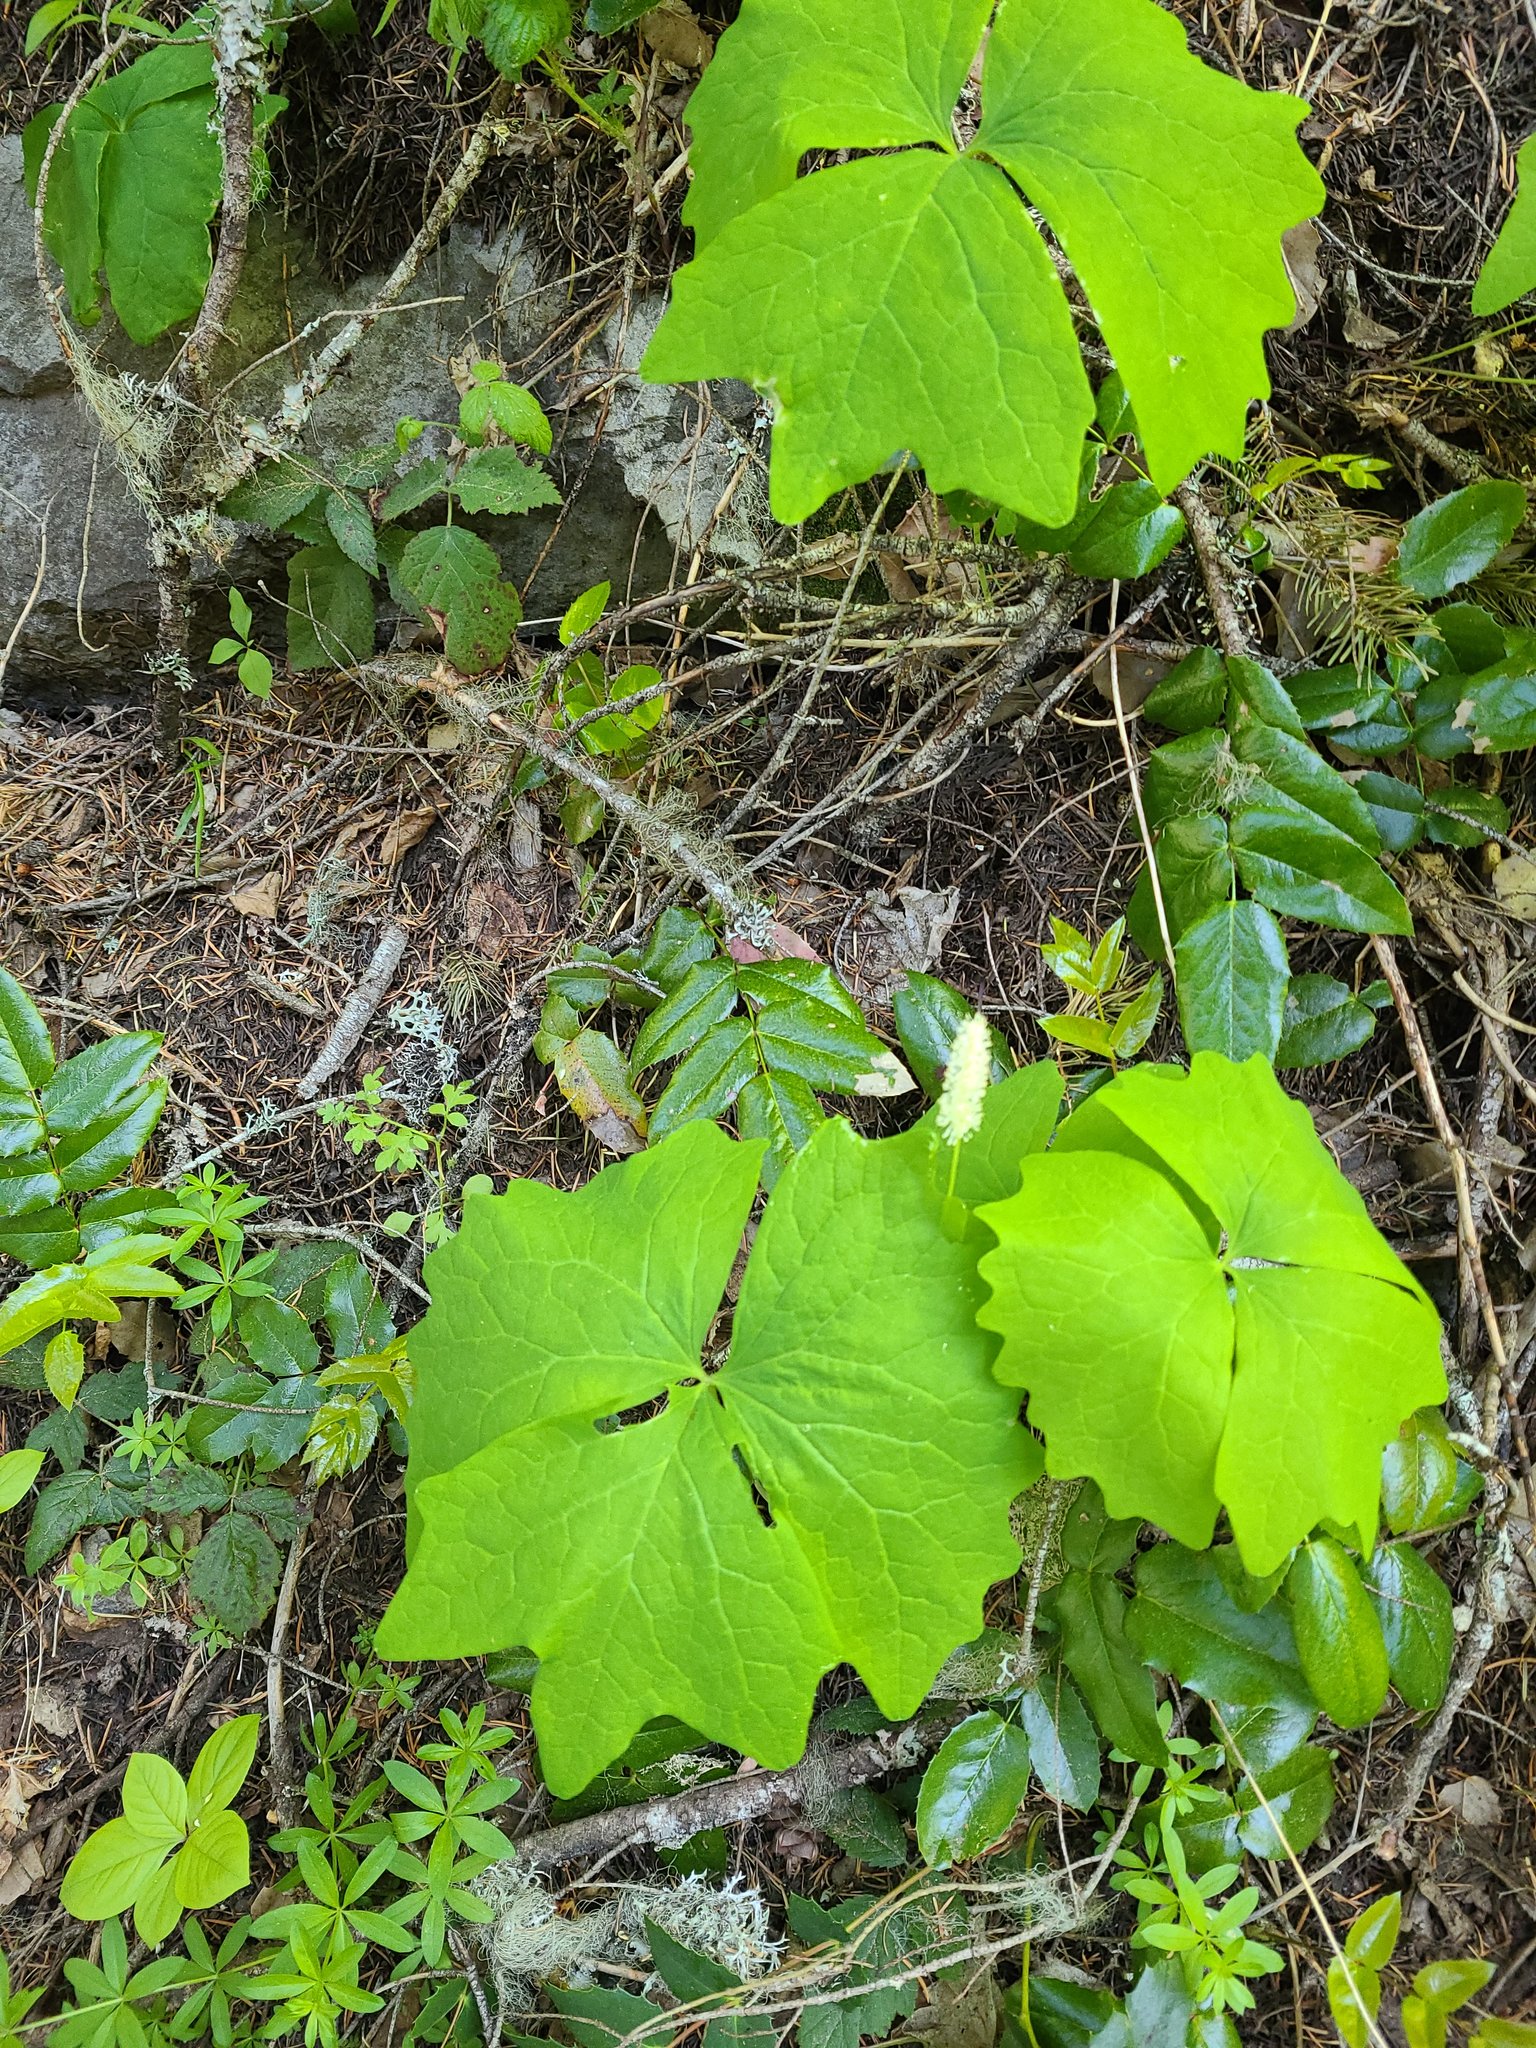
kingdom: Plantae
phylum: Tracheophyta
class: Magnoliopsida
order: Ranunculales
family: Berberidaceae
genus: Achlys
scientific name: Achlys triphylla
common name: Vanilla-leaf
